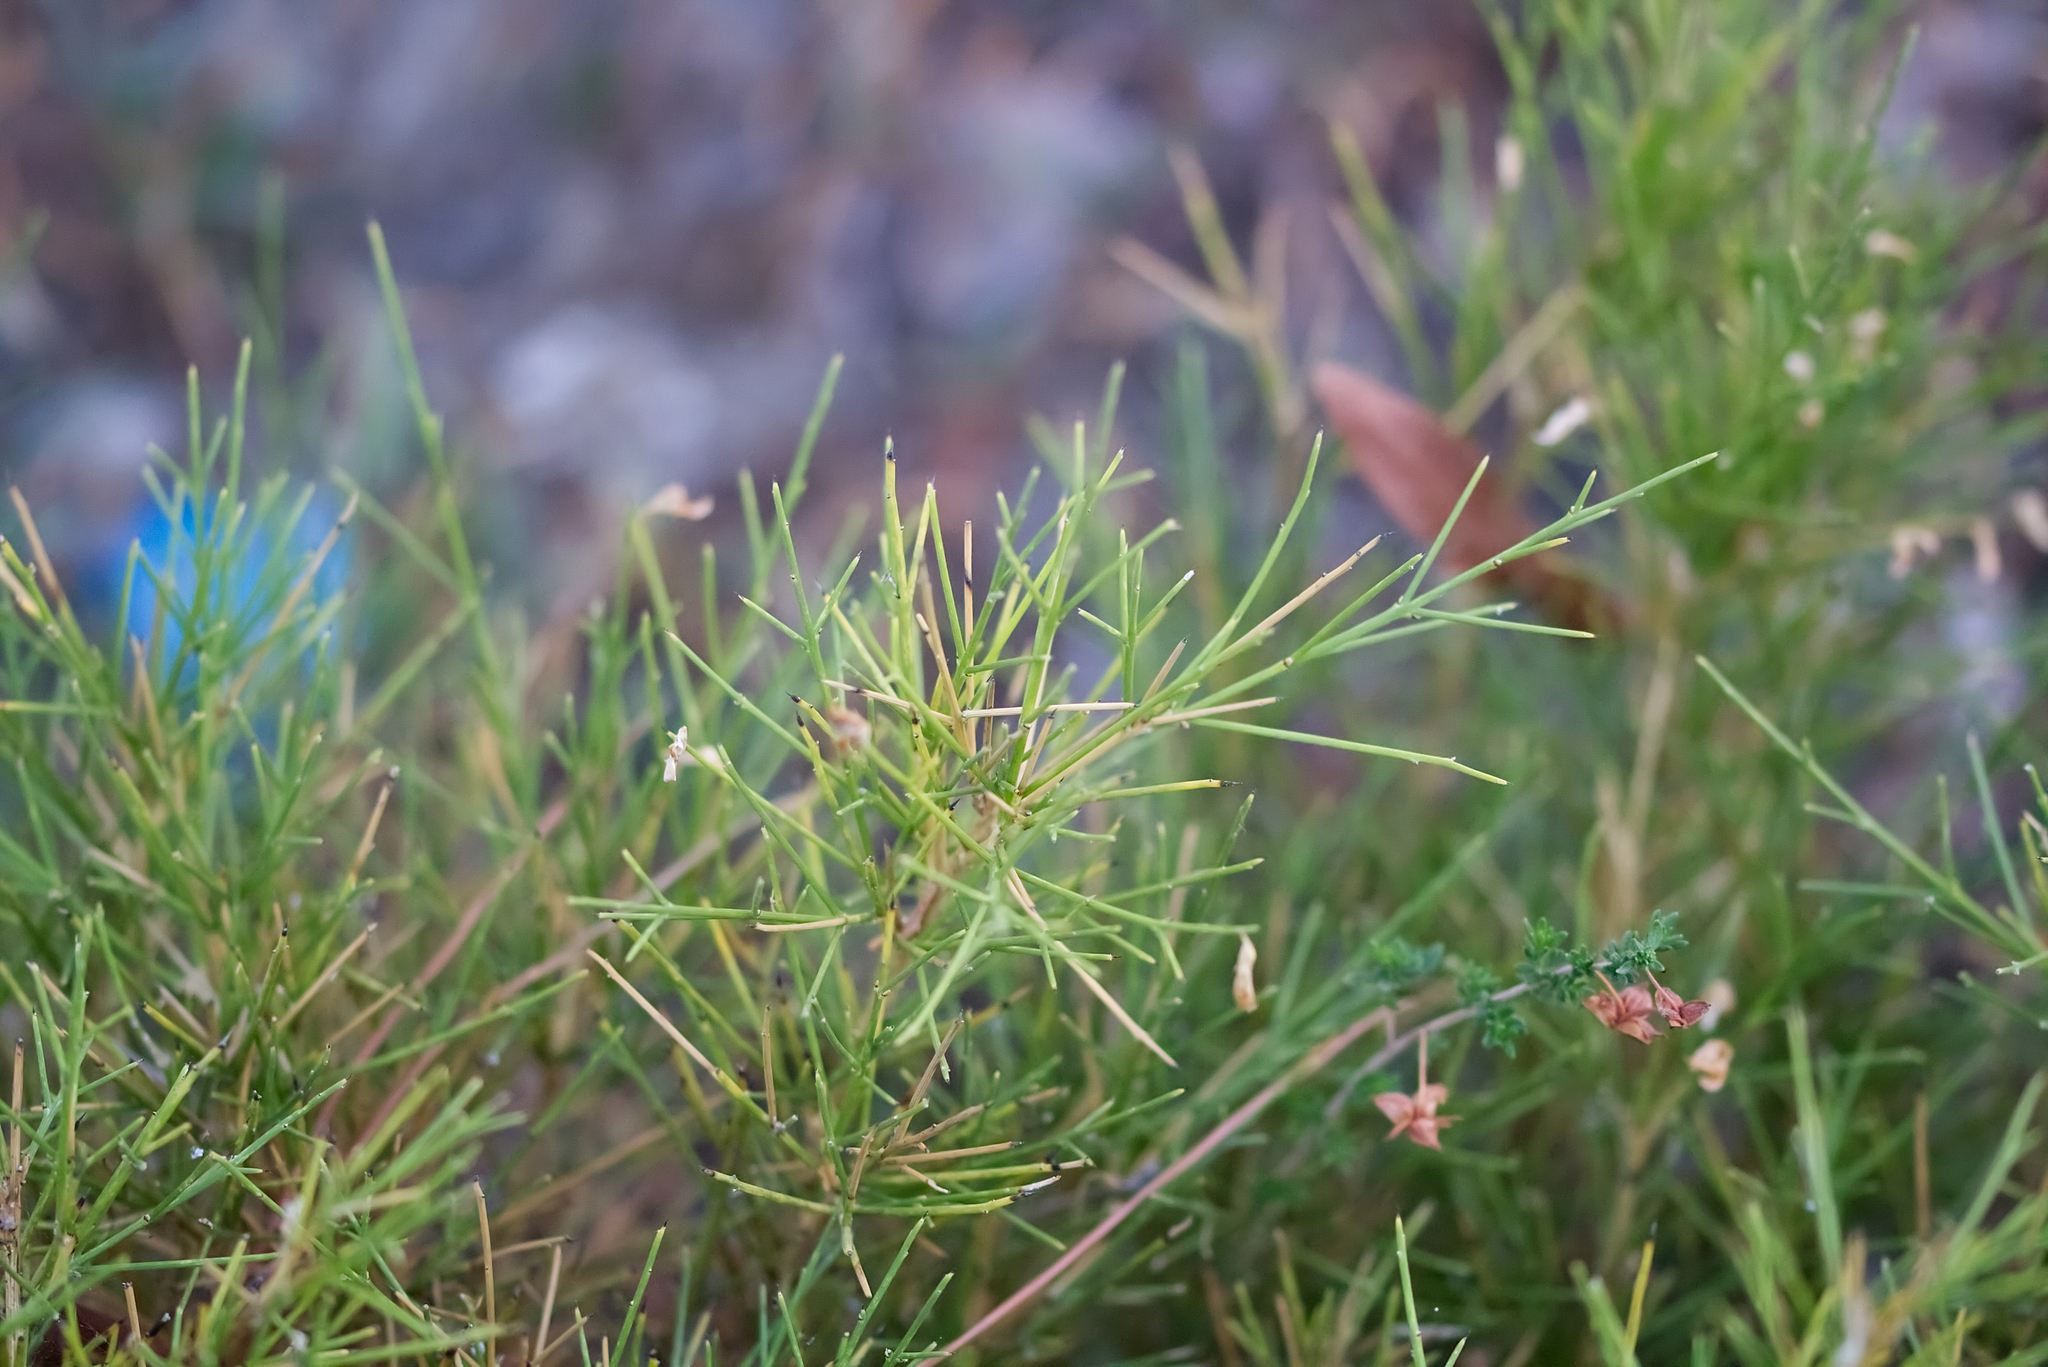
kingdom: Plantae
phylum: Tracheophyta
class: Magnoliopsida
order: Fabales
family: Fabaceae
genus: Genista
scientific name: Genista acanthoclada
